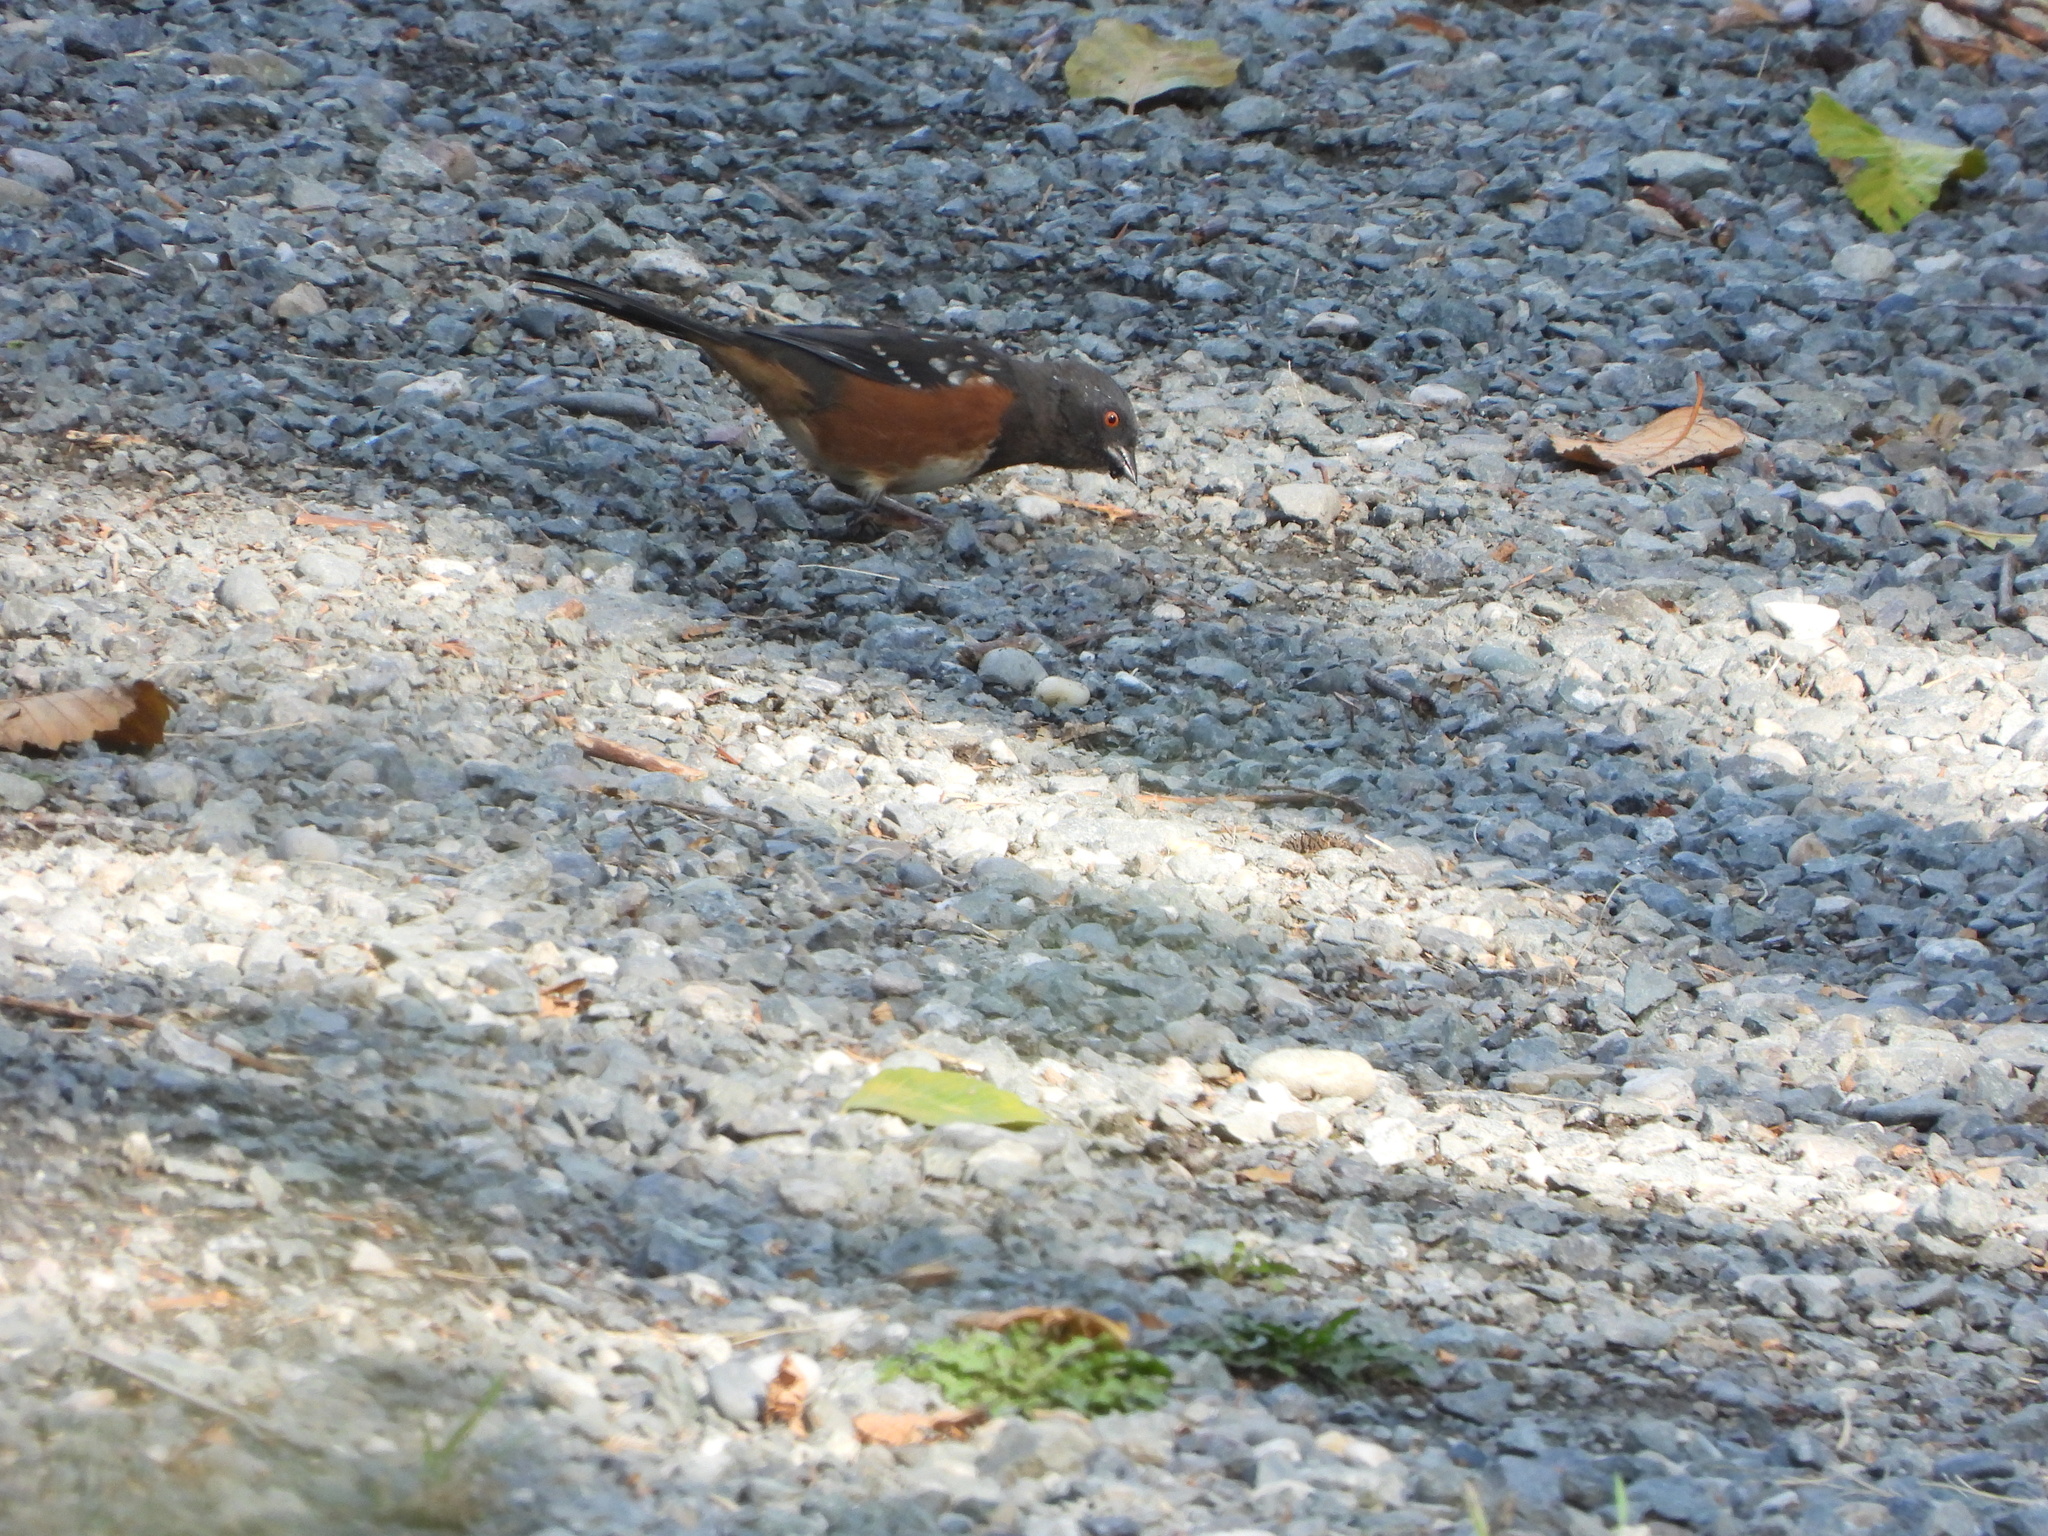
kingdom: Animalia
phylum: Chordata
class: Aves
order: Passeriformes
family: Passerellidae
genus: Pipilo
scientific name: Pipilo maculatus
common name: Spotted towhee
